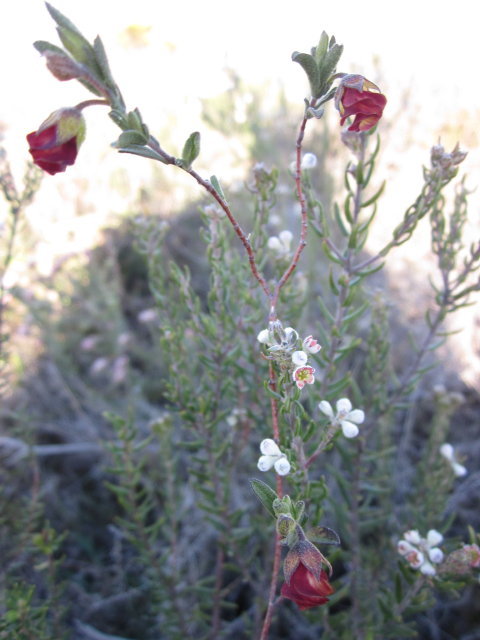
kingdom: Plantae
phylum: Tracheophyta
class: Magnoliopsida
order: Malvales
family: Malvaceae
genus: Hermannia
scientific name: Hermannia flammula
